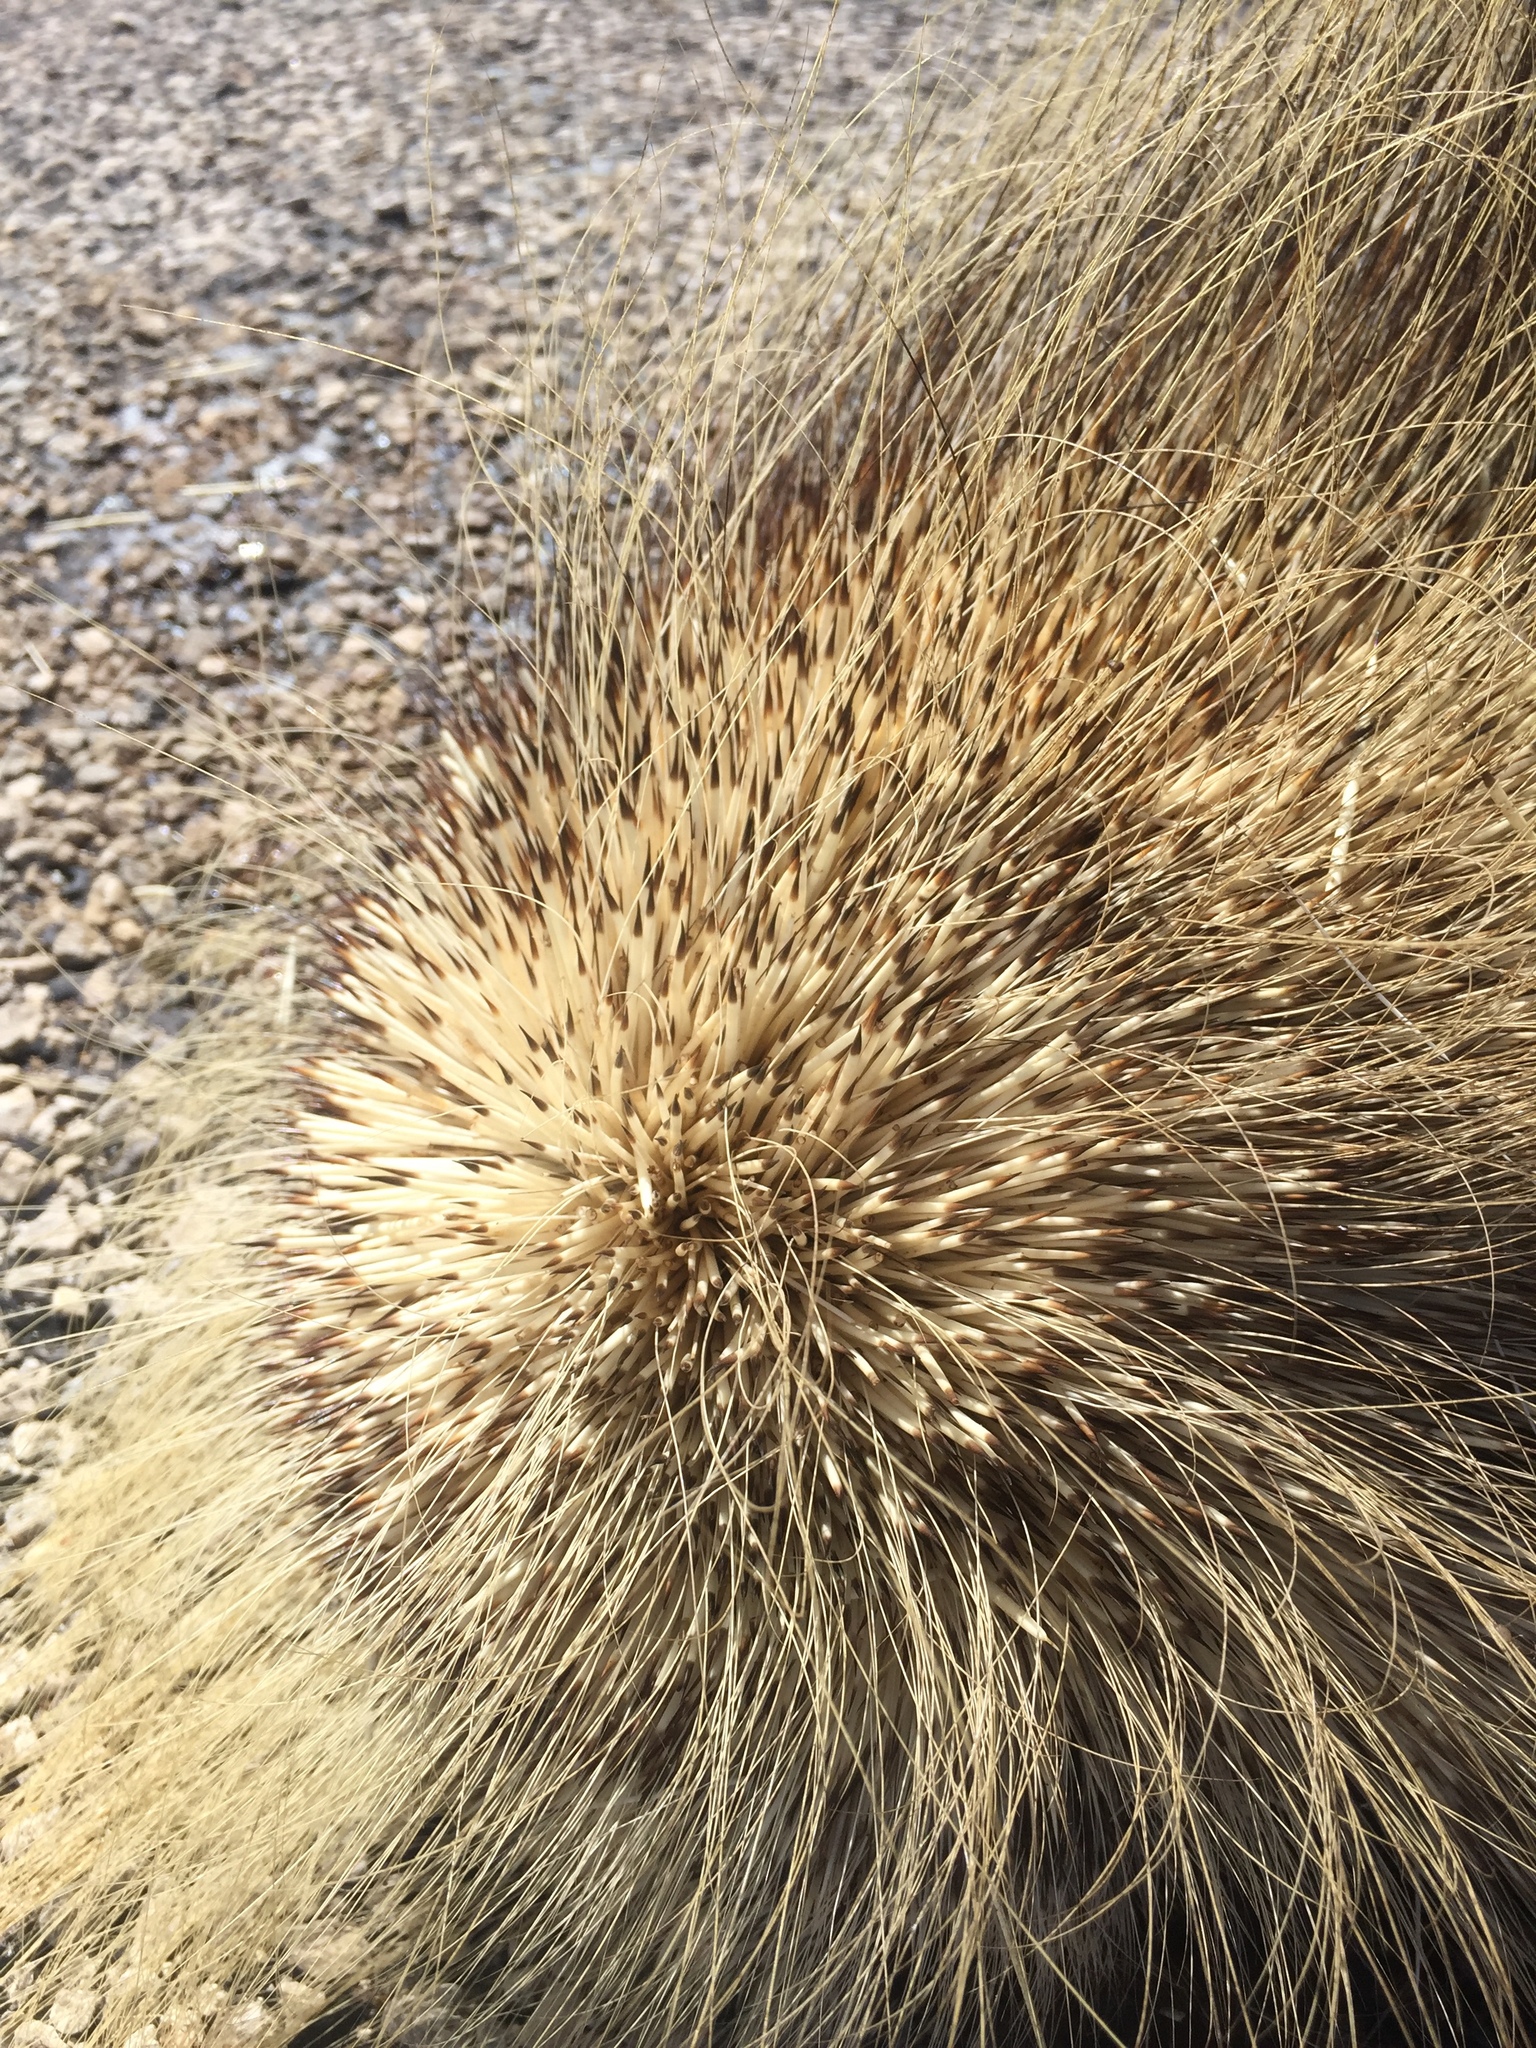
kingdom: Animalia
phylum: Chordata
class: Mammalia
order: Rodentia
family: Erethizontidae
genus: Erethizon
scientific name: Erethizon dorsatus
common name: North american porcupine
